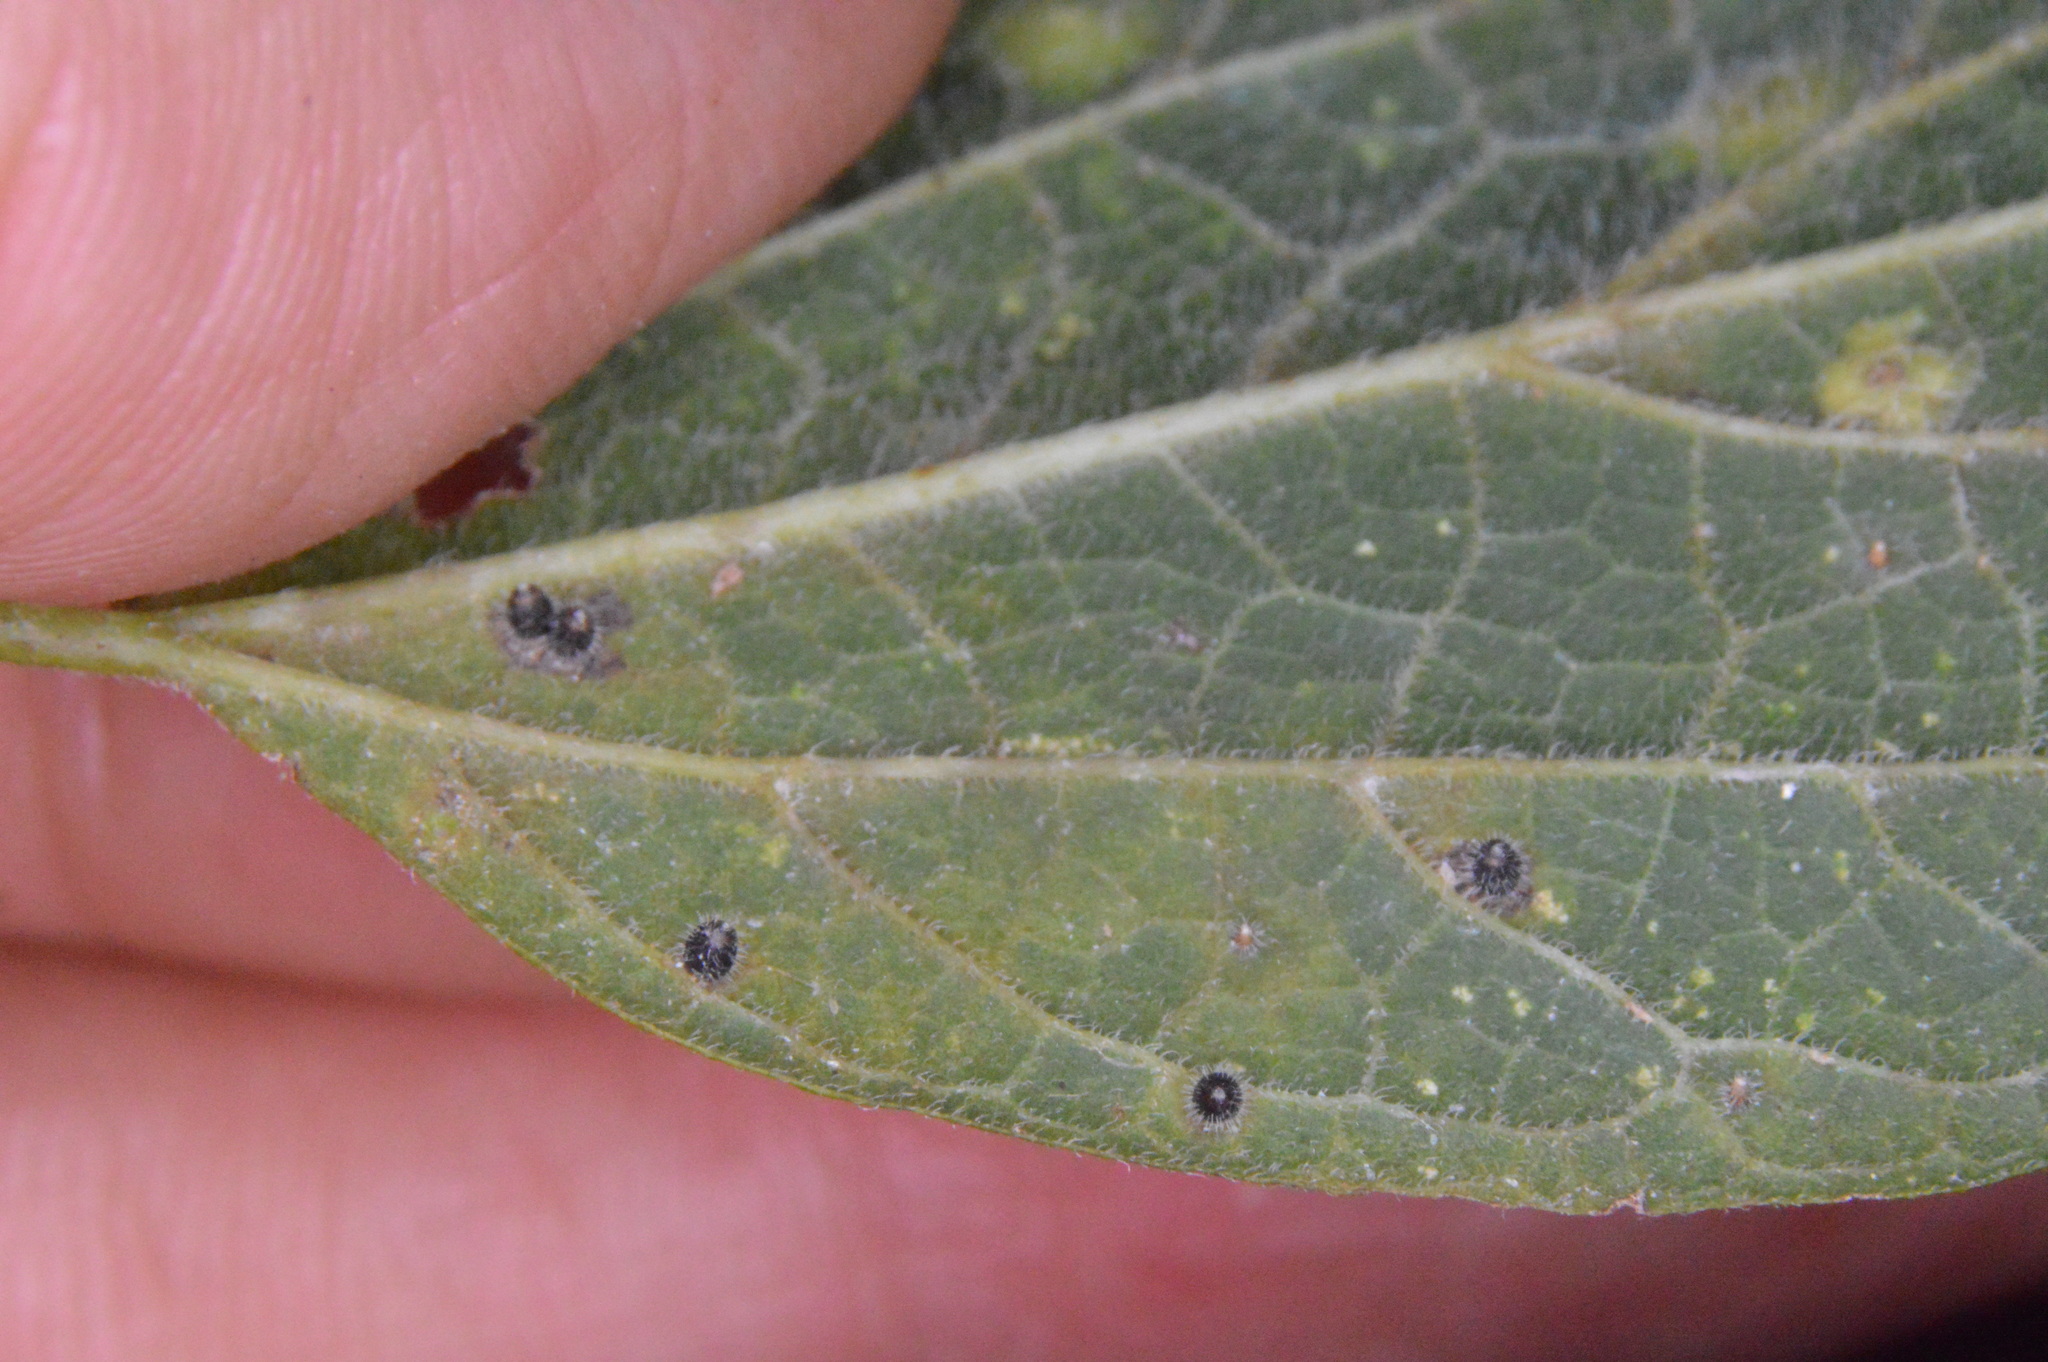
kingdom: Animalia
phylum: Arthropoda
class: Insecta
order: Diptera
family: Cecidomyiidae
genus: Celticecis
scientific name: Celticecis cupiformis
